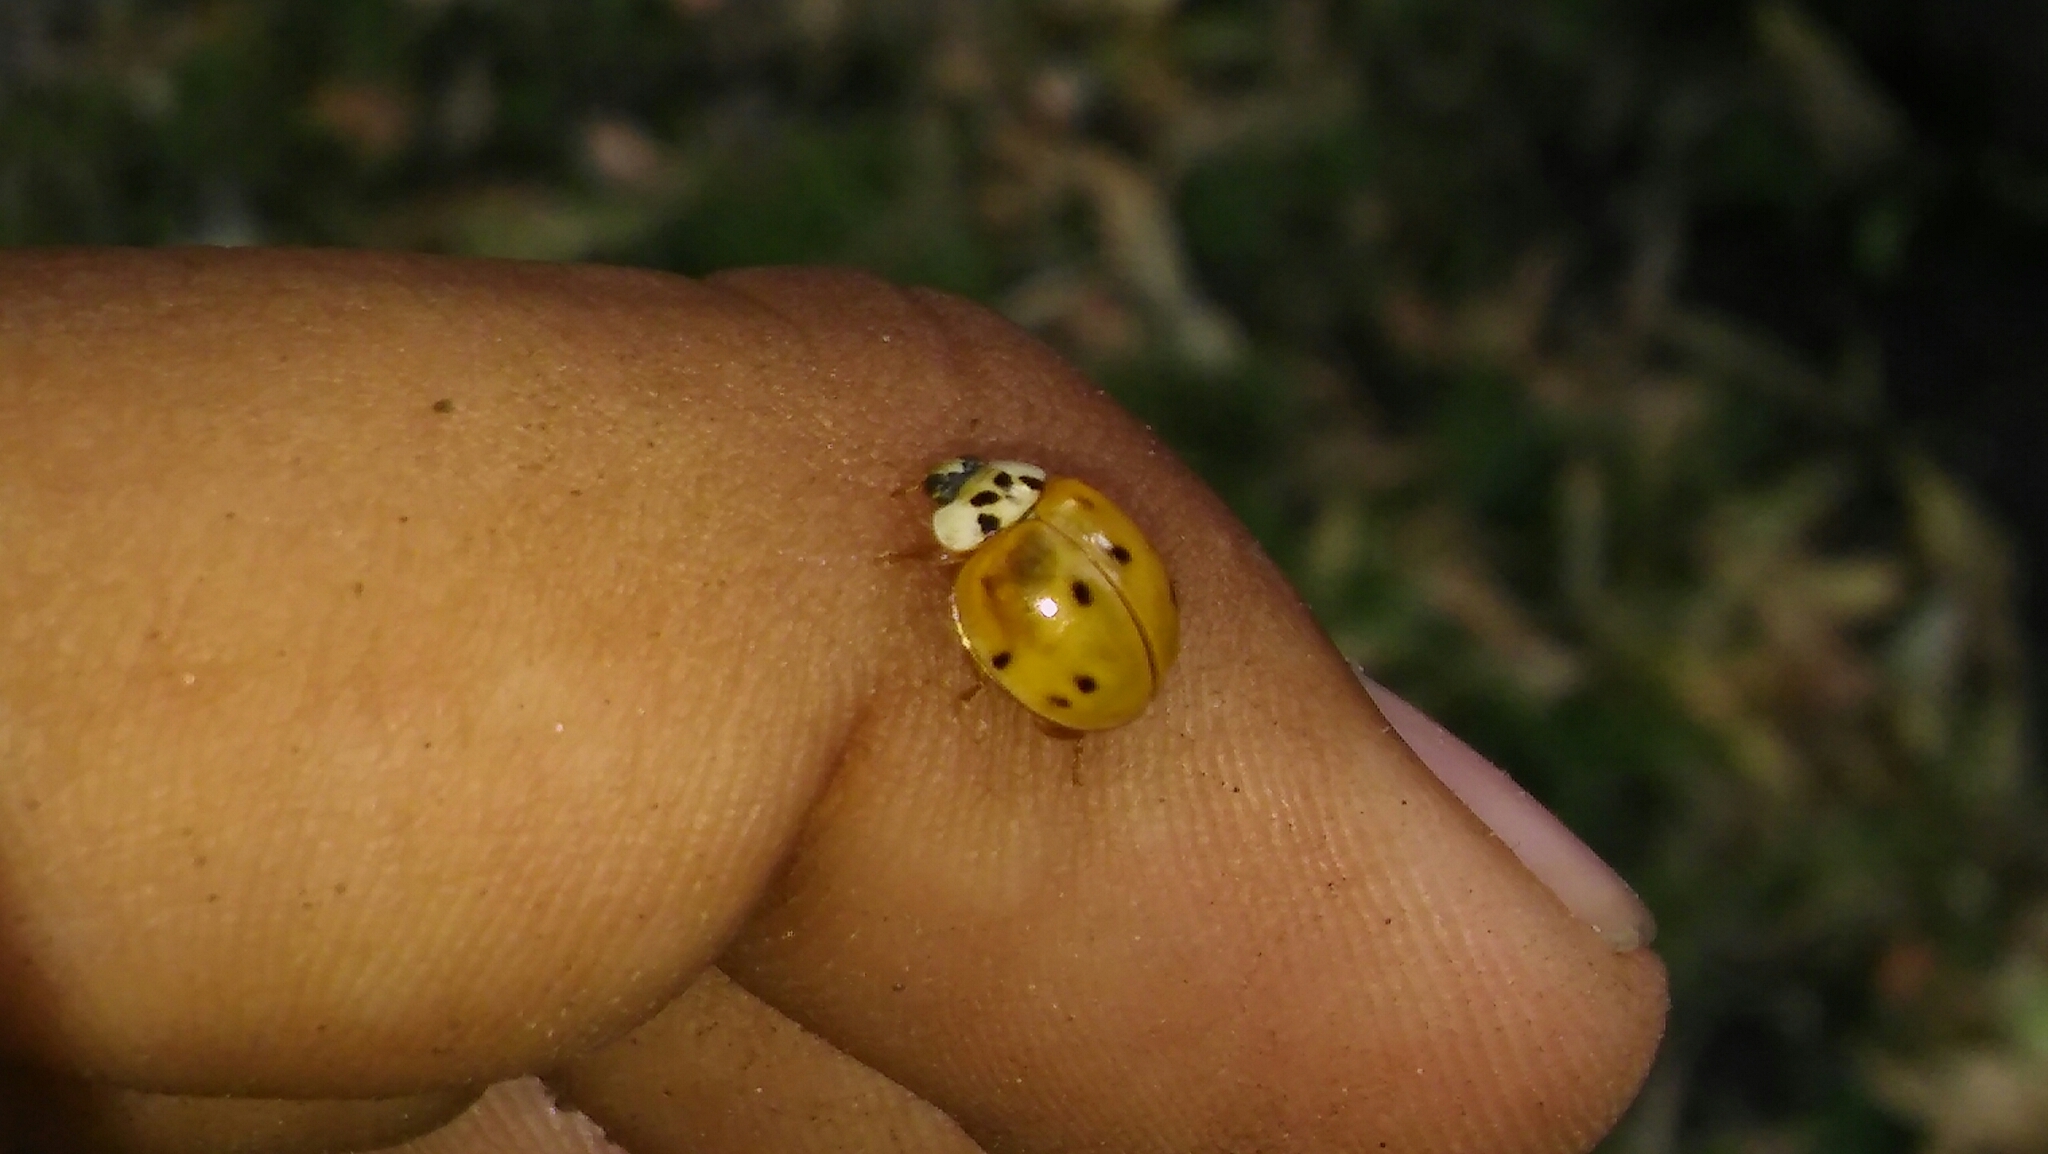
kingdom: Animalia
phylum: Arthropoda
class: Insecta
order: Coleoptera
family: Coccinellidae
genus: Harmonia
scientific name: Harmonia axyridis
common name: Harlequin ladybird
